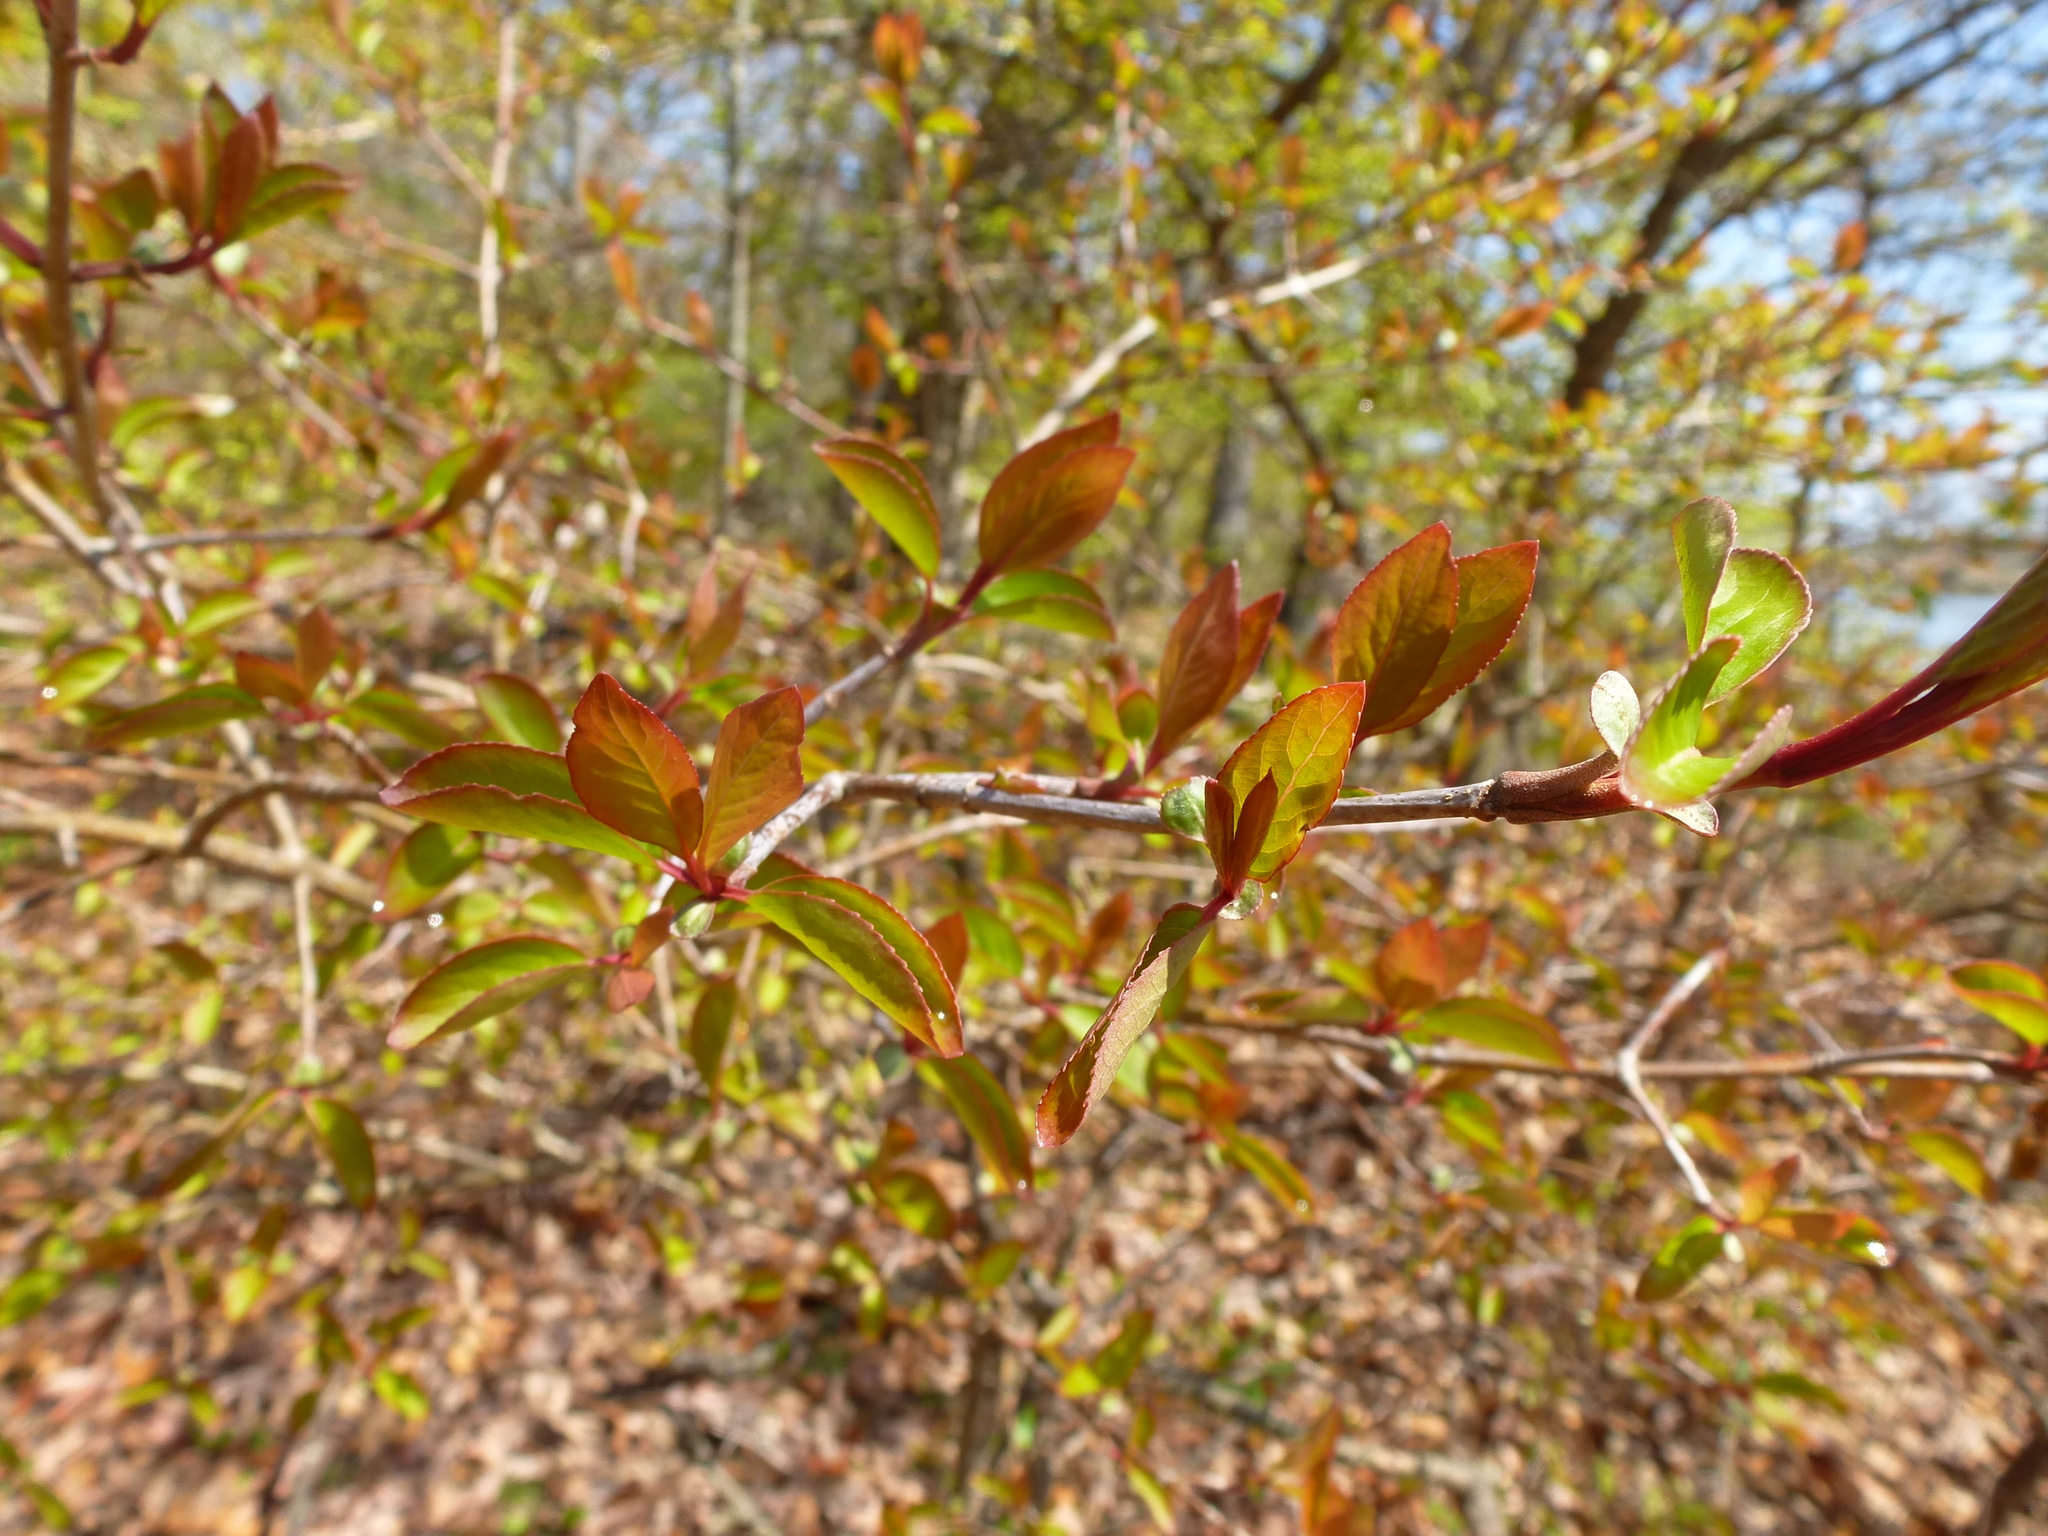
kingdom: Plantae
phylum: Tracheophyta
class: Magnoliopsida
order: Dipsacales
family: Viburnaceae
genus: Viburnum
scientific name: Viburnum prunifolium
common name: Black haw
